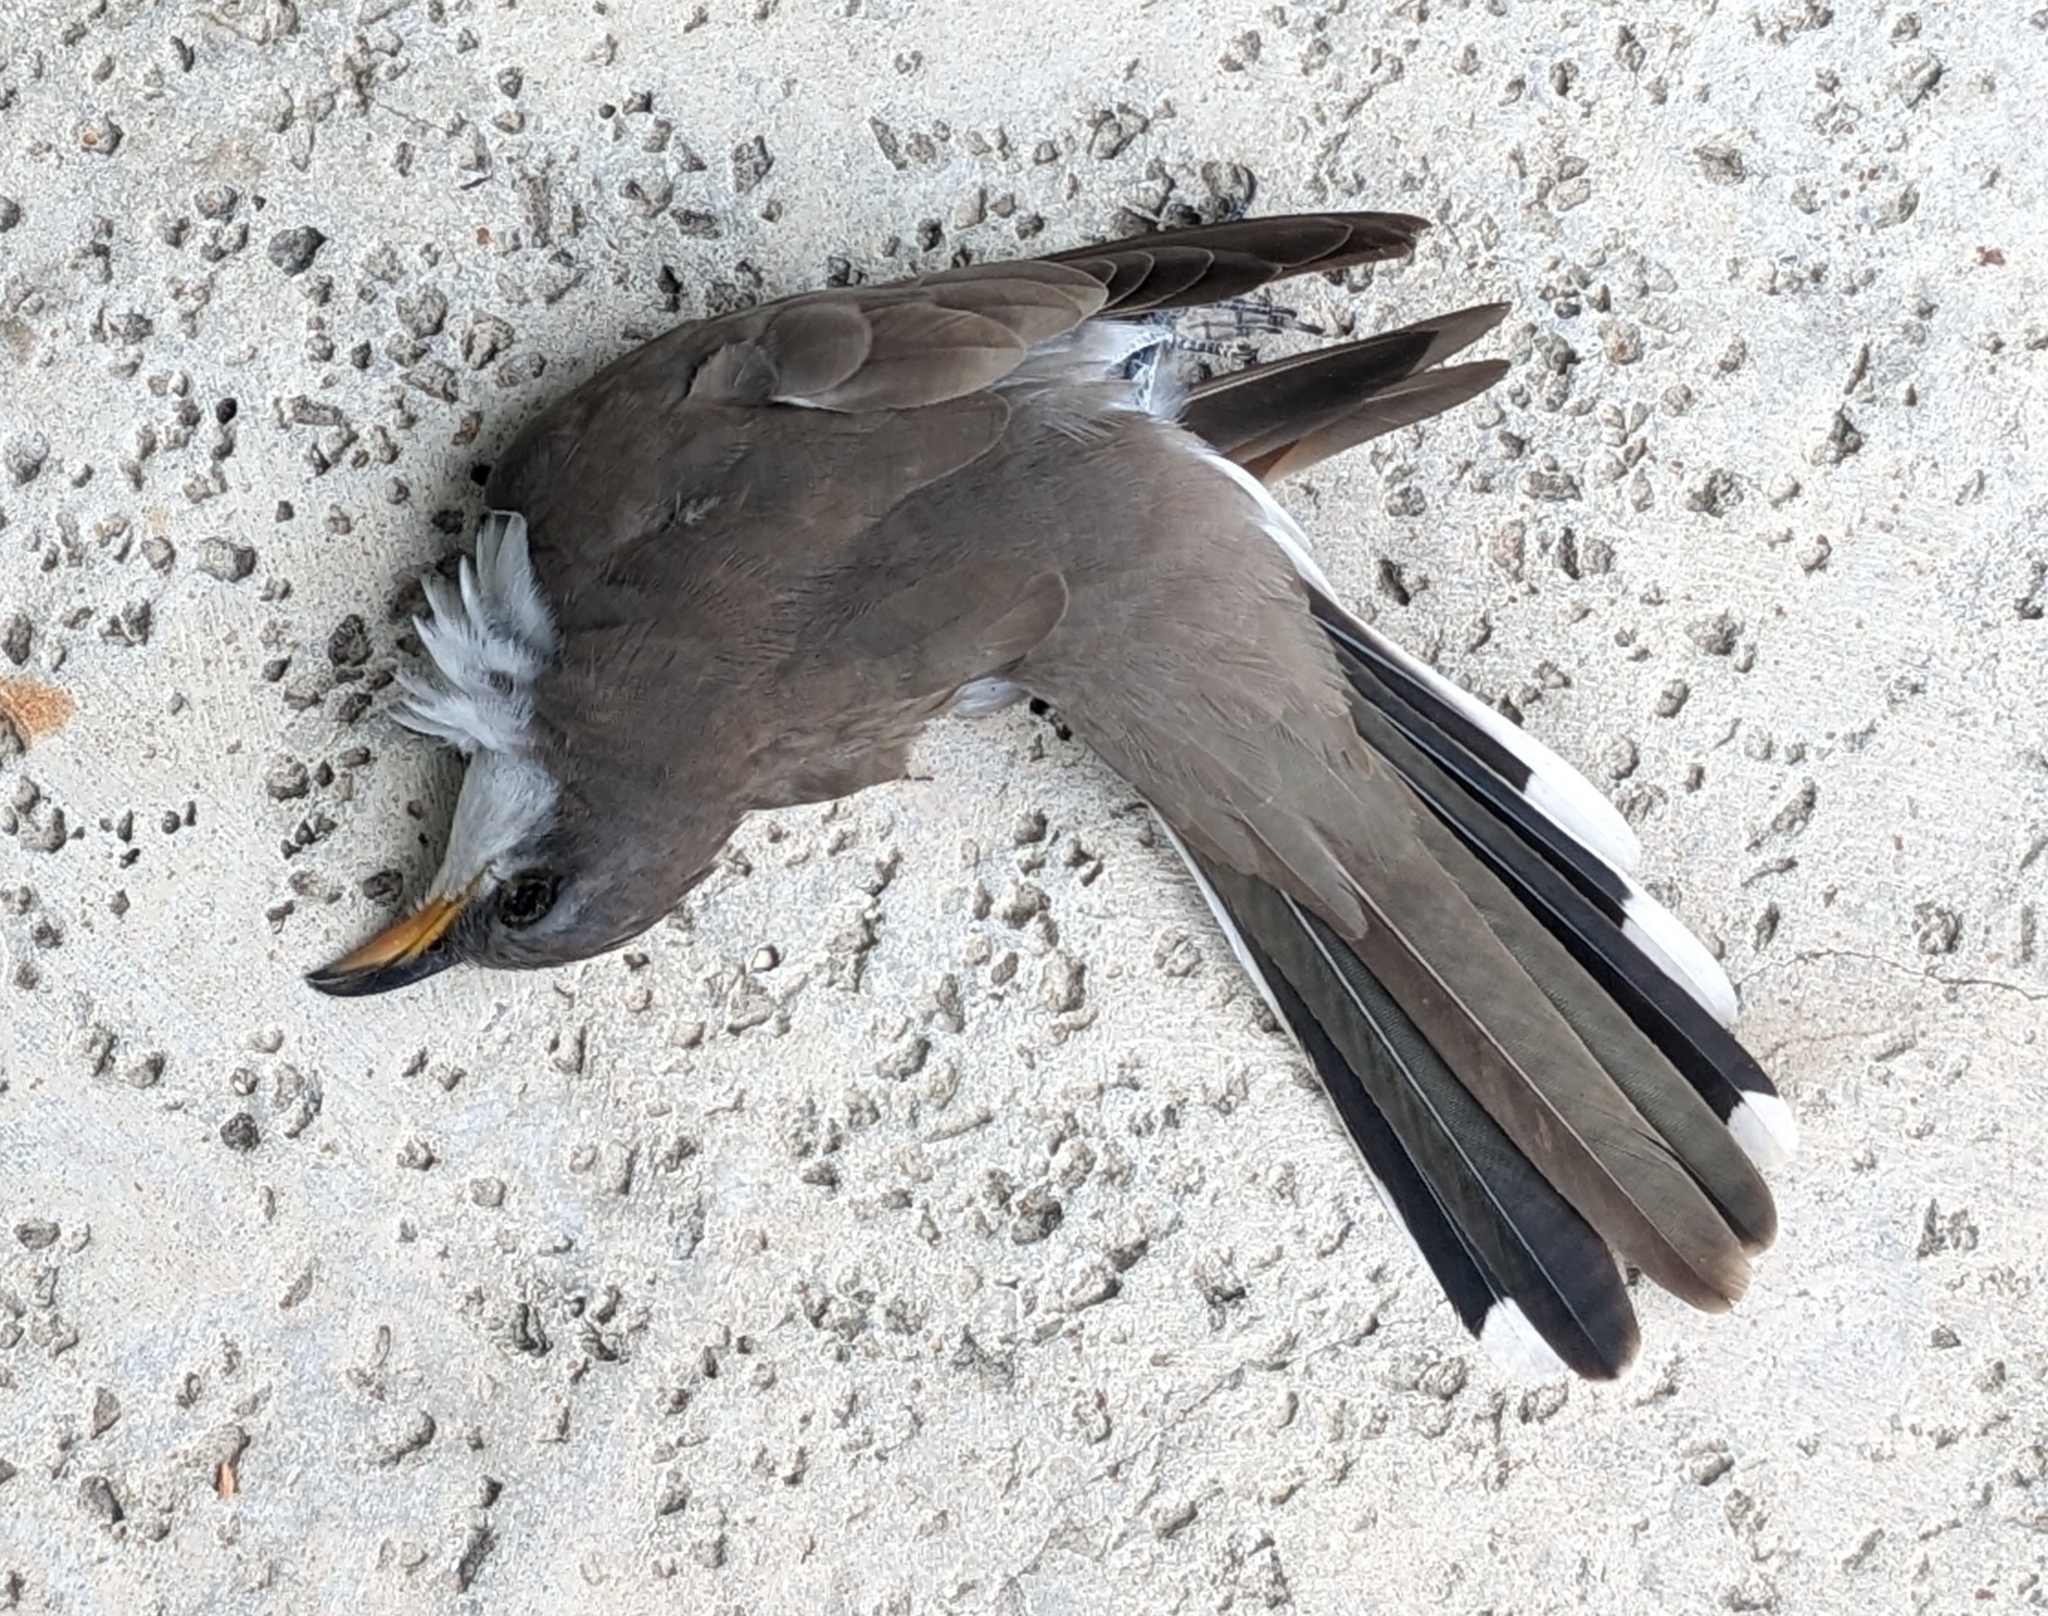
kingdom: Animalia
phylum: Chordata
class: Aves
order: Cuculiformes
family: Cuculidae
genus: Coccyzus
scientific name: Coccyzus americanus
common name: Yellow-billed cuckoo
